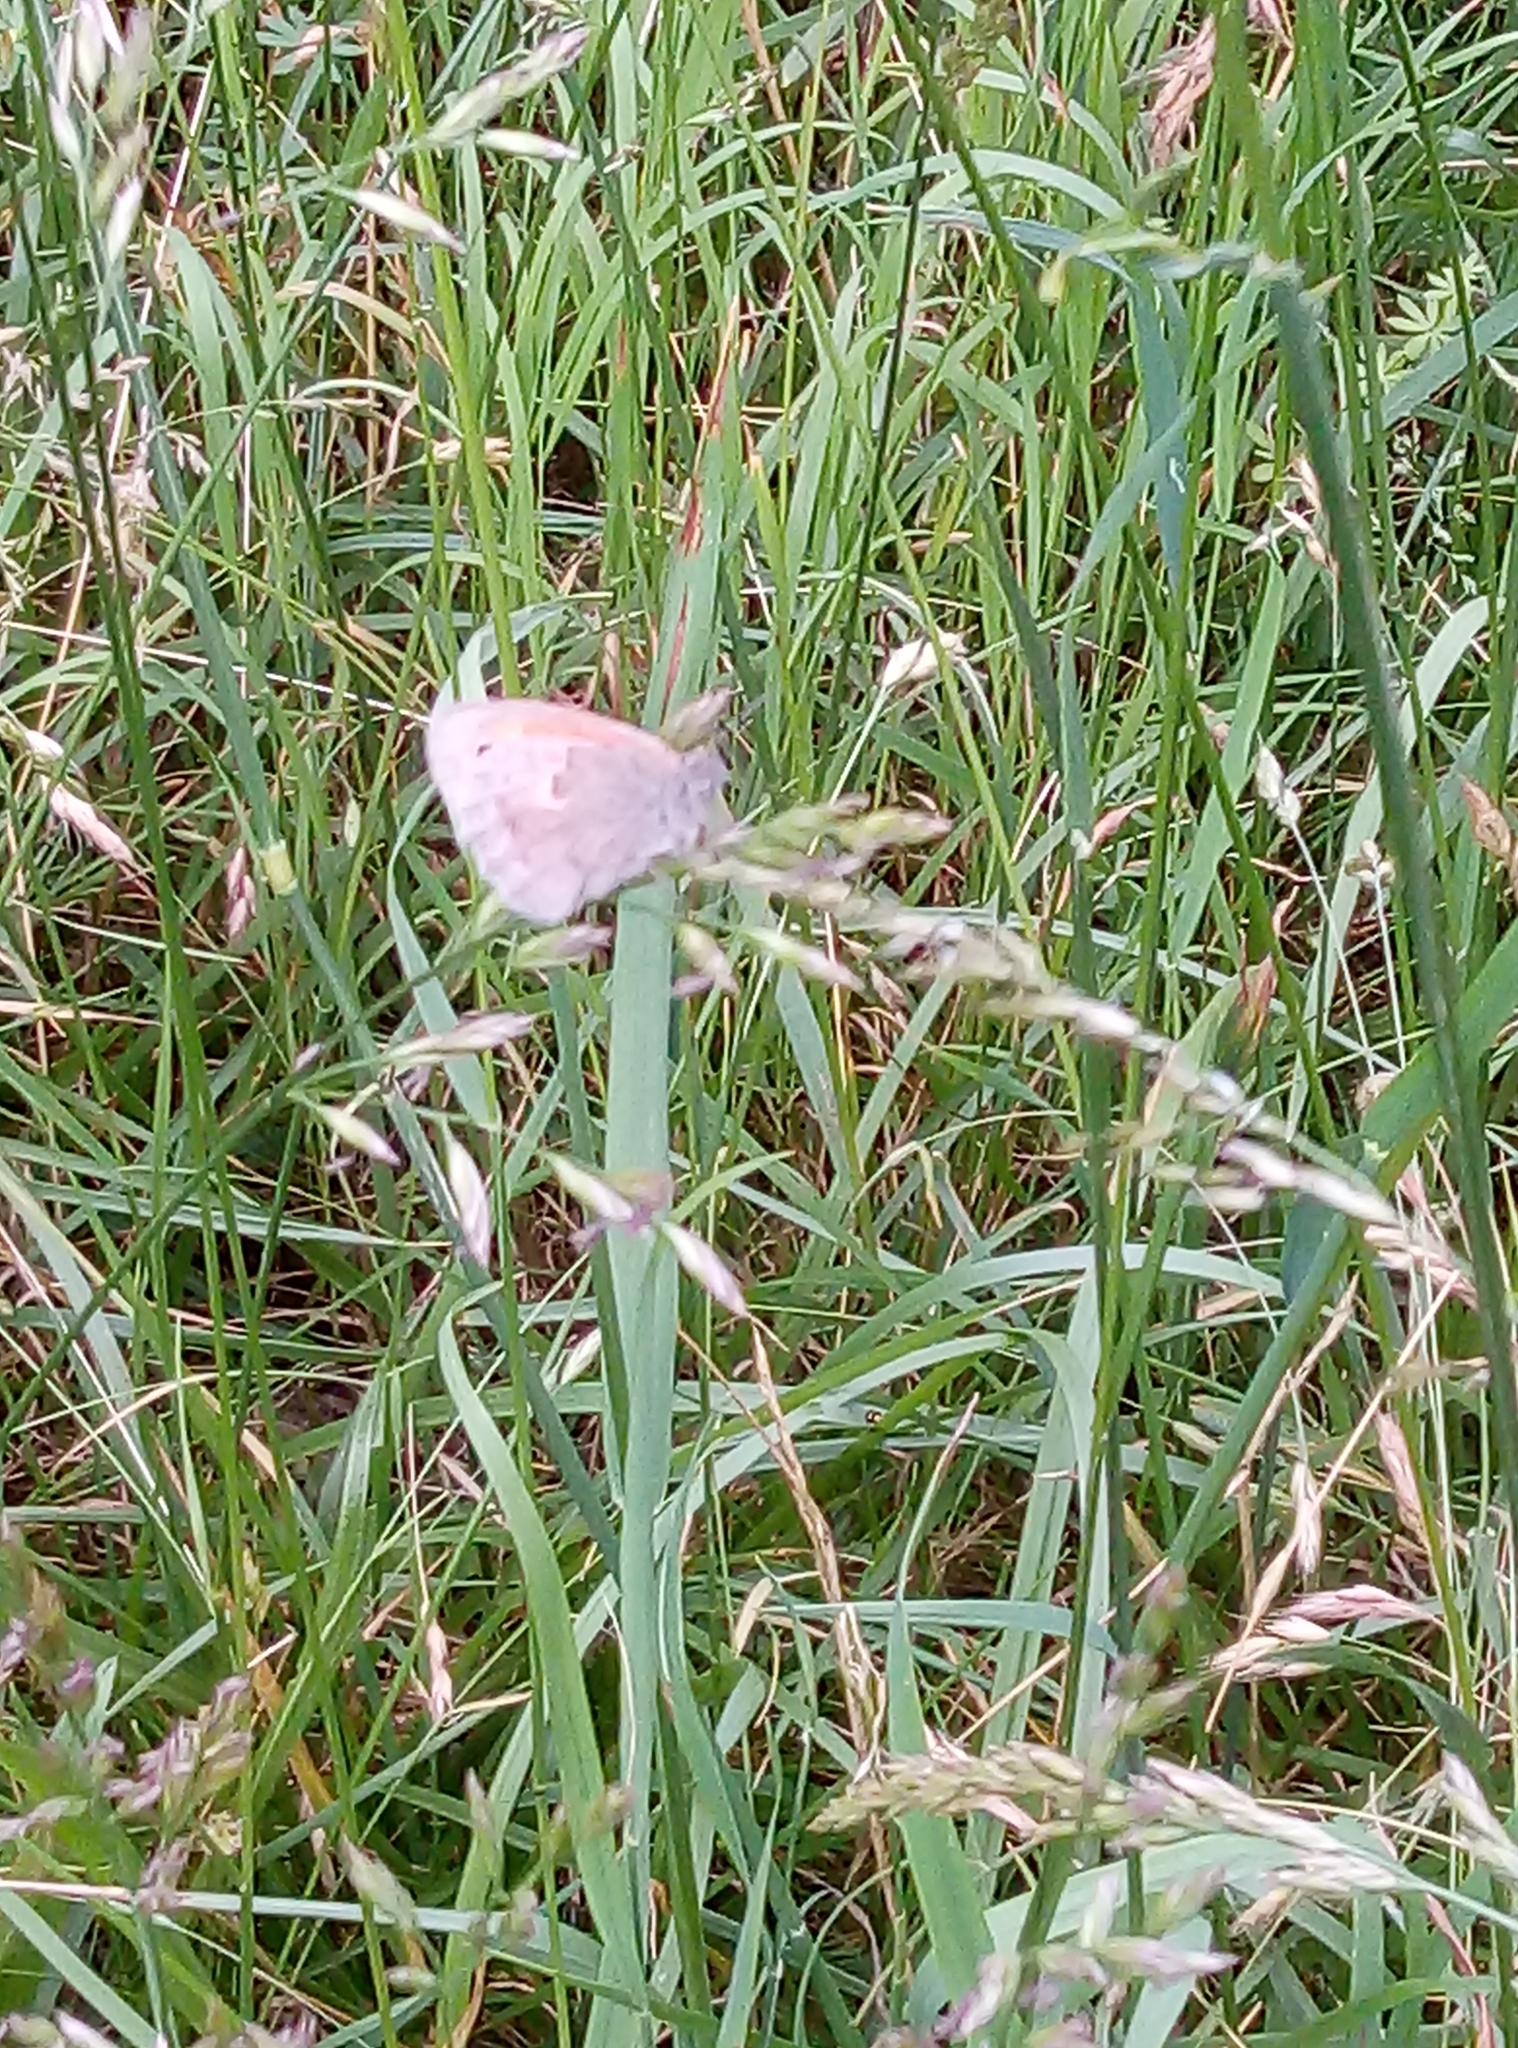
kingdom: Animalia
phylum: Arthropoda
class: Insecta
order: Lepidoptera
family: Nymphalidae
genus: Coenonympha
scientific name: Coenonympha pamphilus
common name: Small heath
